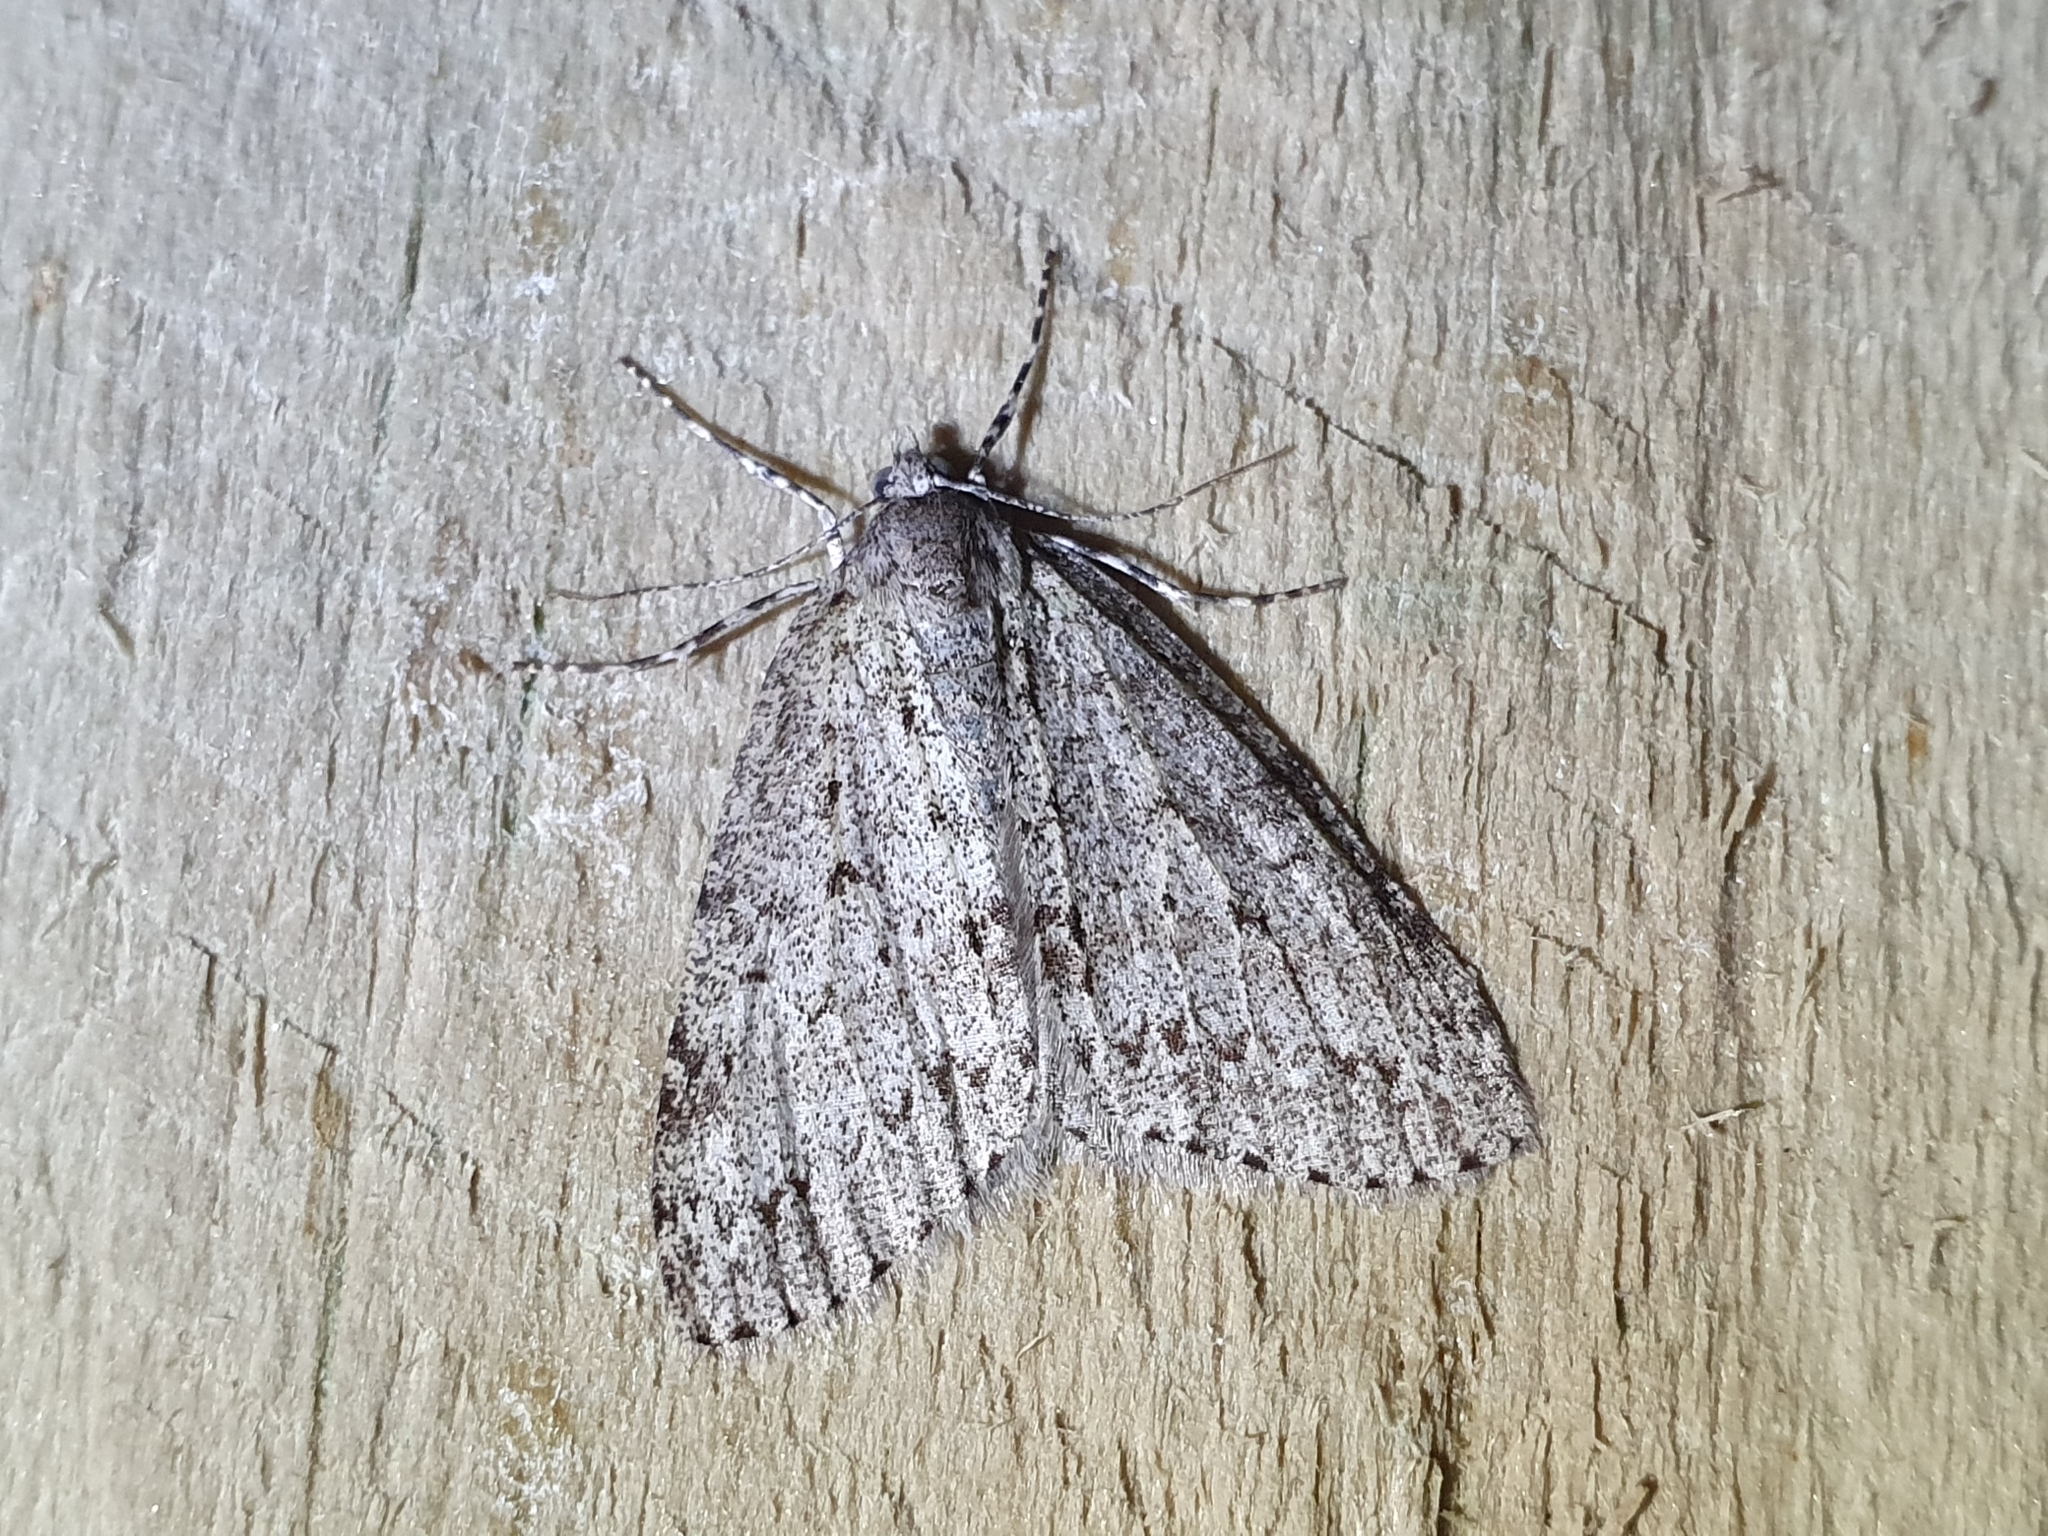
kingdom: Animalia
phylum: Arthropoda
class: Insecta
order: Lepidoptera
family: Geometridae
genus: Pseudocoremia
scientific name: Pseudocoremia fenerata
